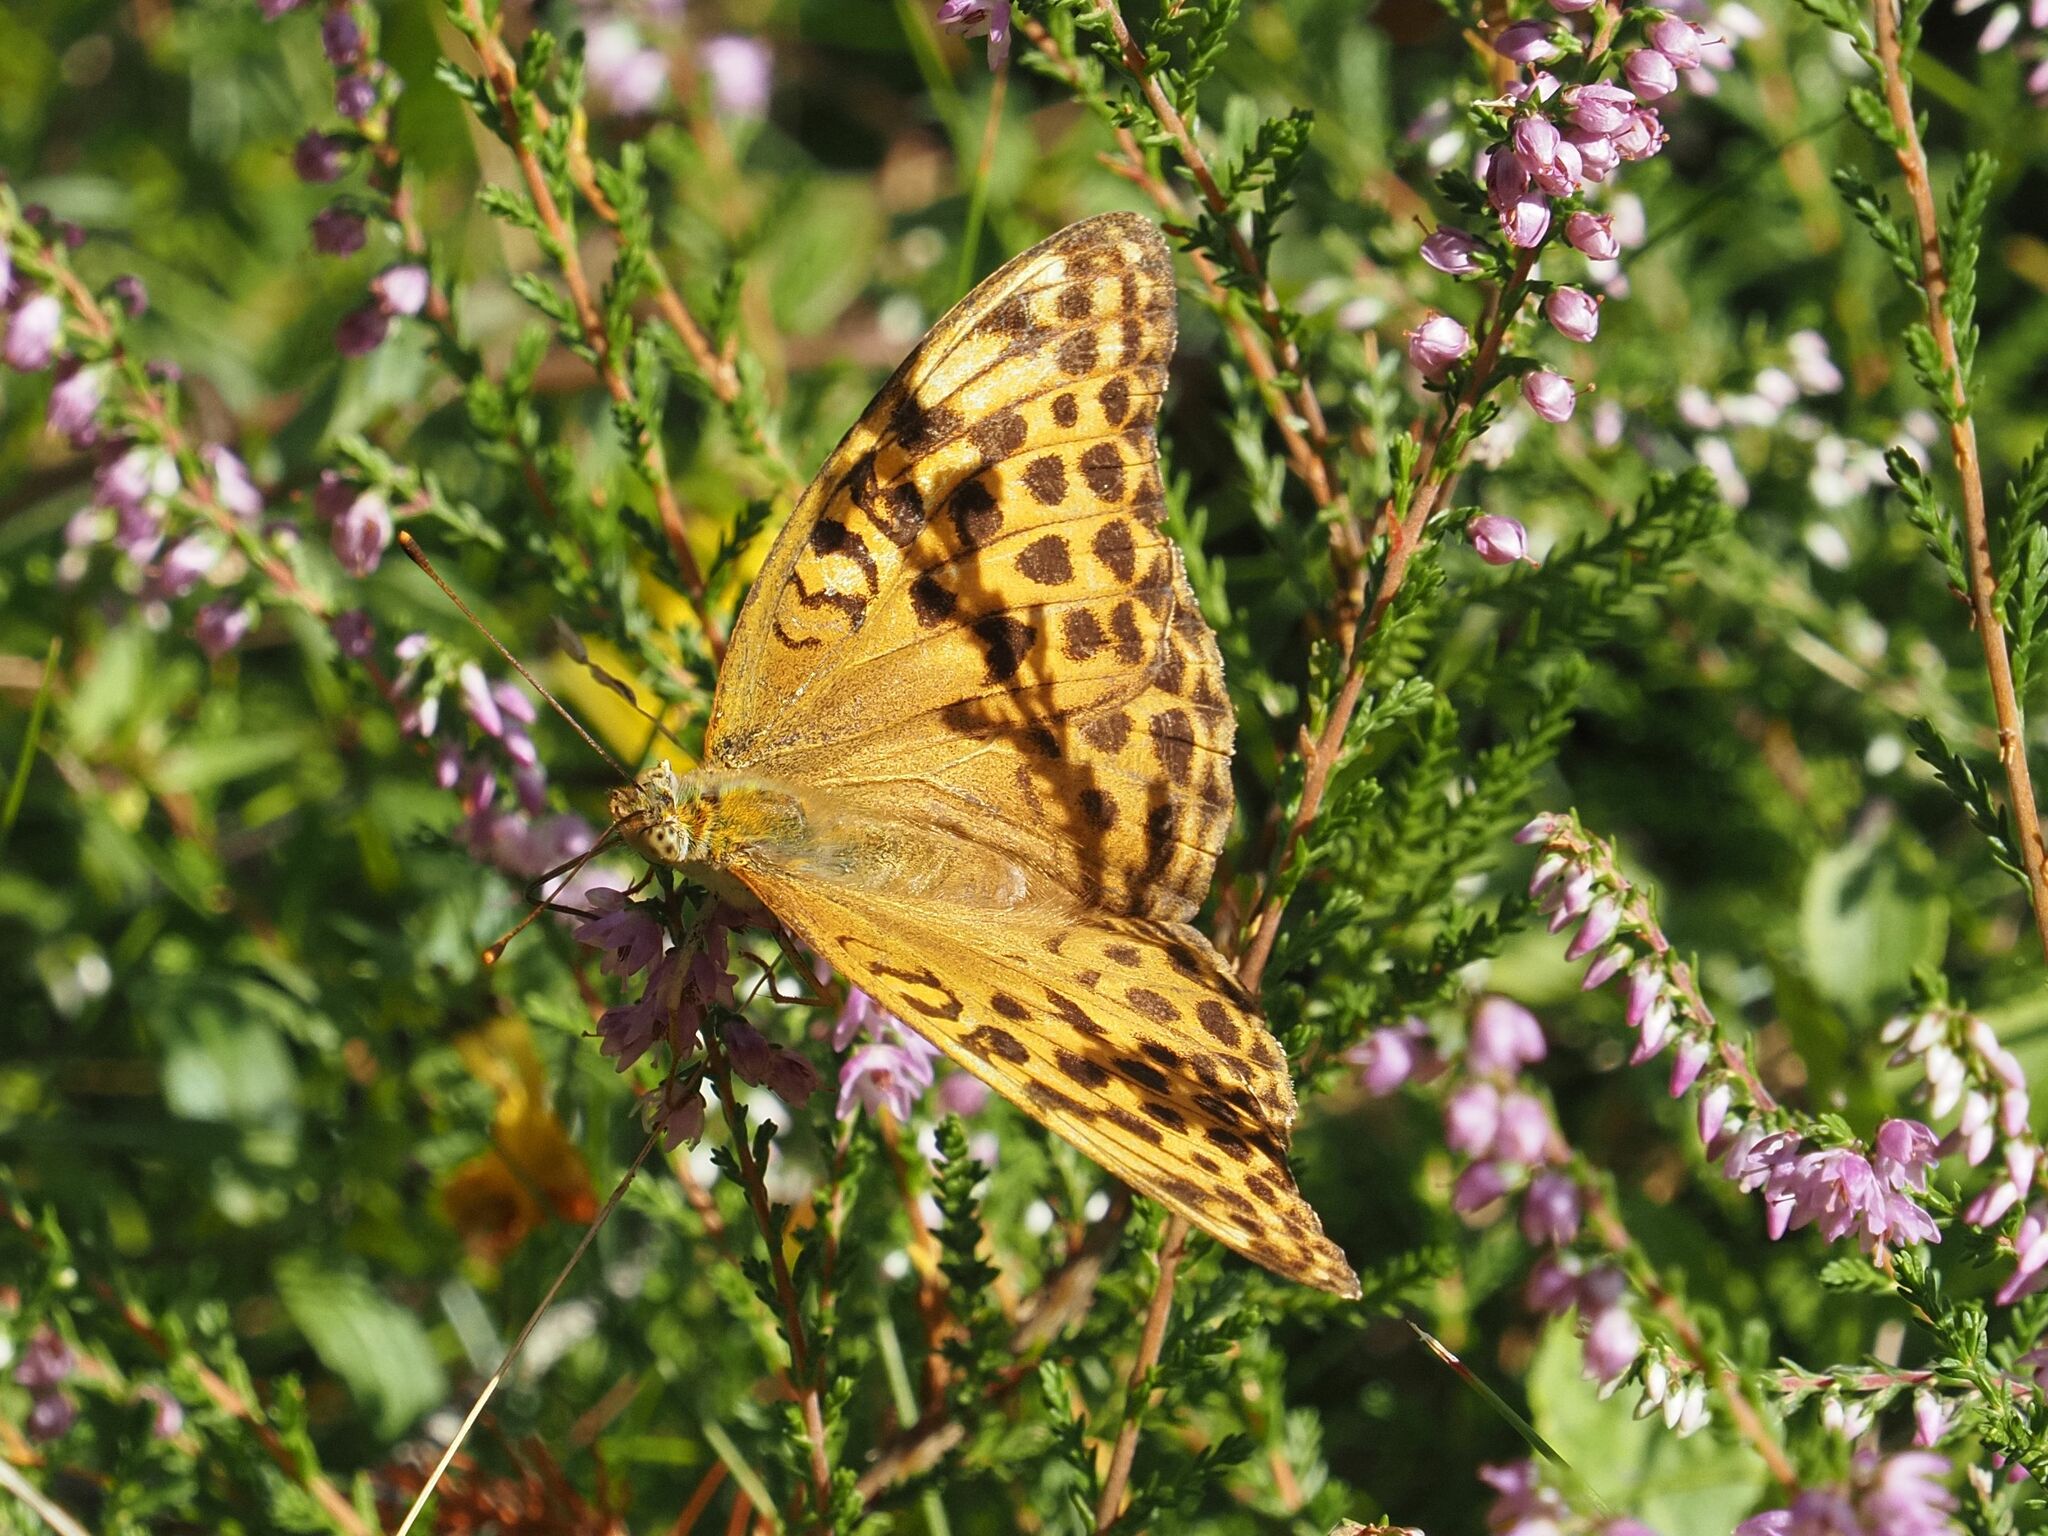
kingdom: Animalia
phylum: Arthropoda
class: Insecta
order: Lepidoptera
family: Nymphalidae
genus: Argynnis
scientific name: Argynnis paphia
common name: Silver-washed fritillary
